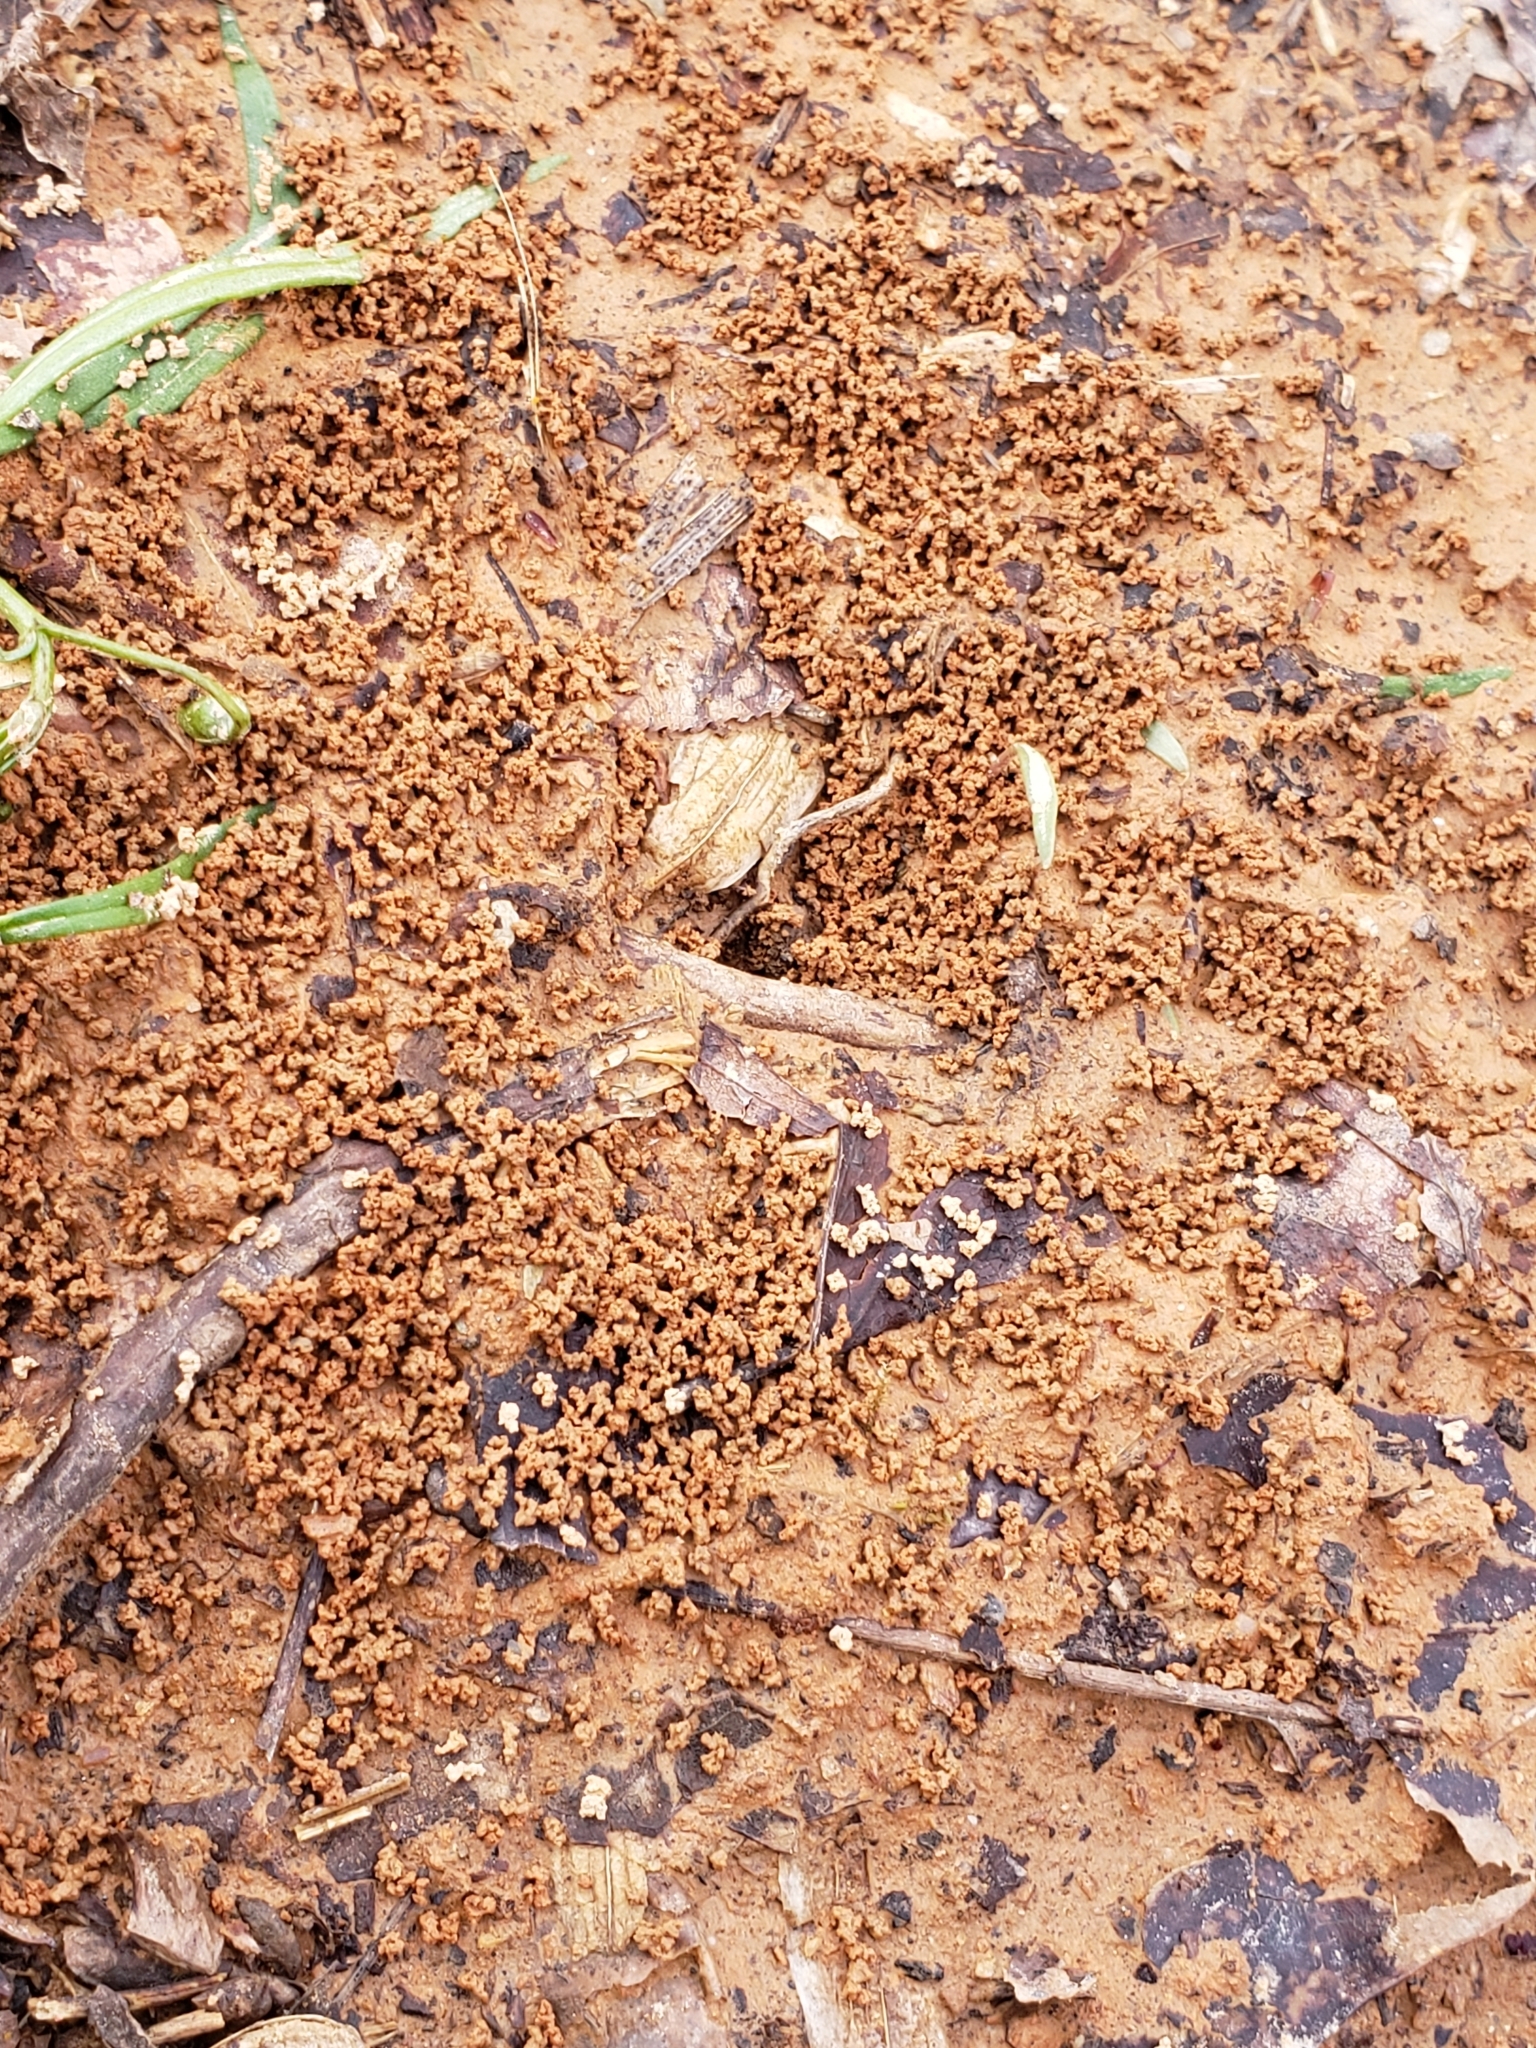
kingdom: Animalia
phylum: Arthropoda
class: Insecta
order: Hymenoptera
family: Formicidae
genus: Prenolepis
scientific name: Prenolepis imparis
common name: Small honey ant
